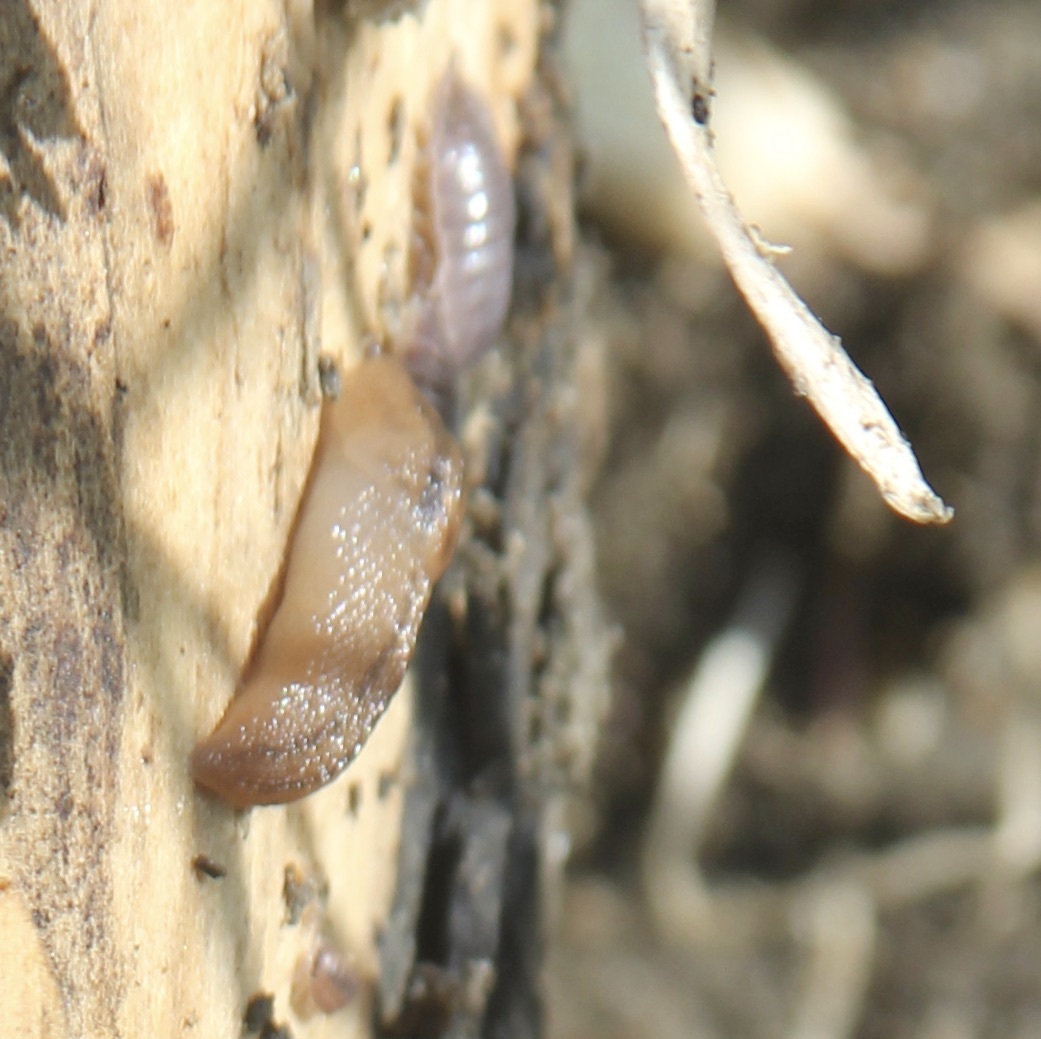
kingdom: Animalia
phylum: Mollusca
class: Gastropoda
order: Stylommatophora
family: Limacidae
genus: Ambigolimax
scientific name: Ambigolimax
